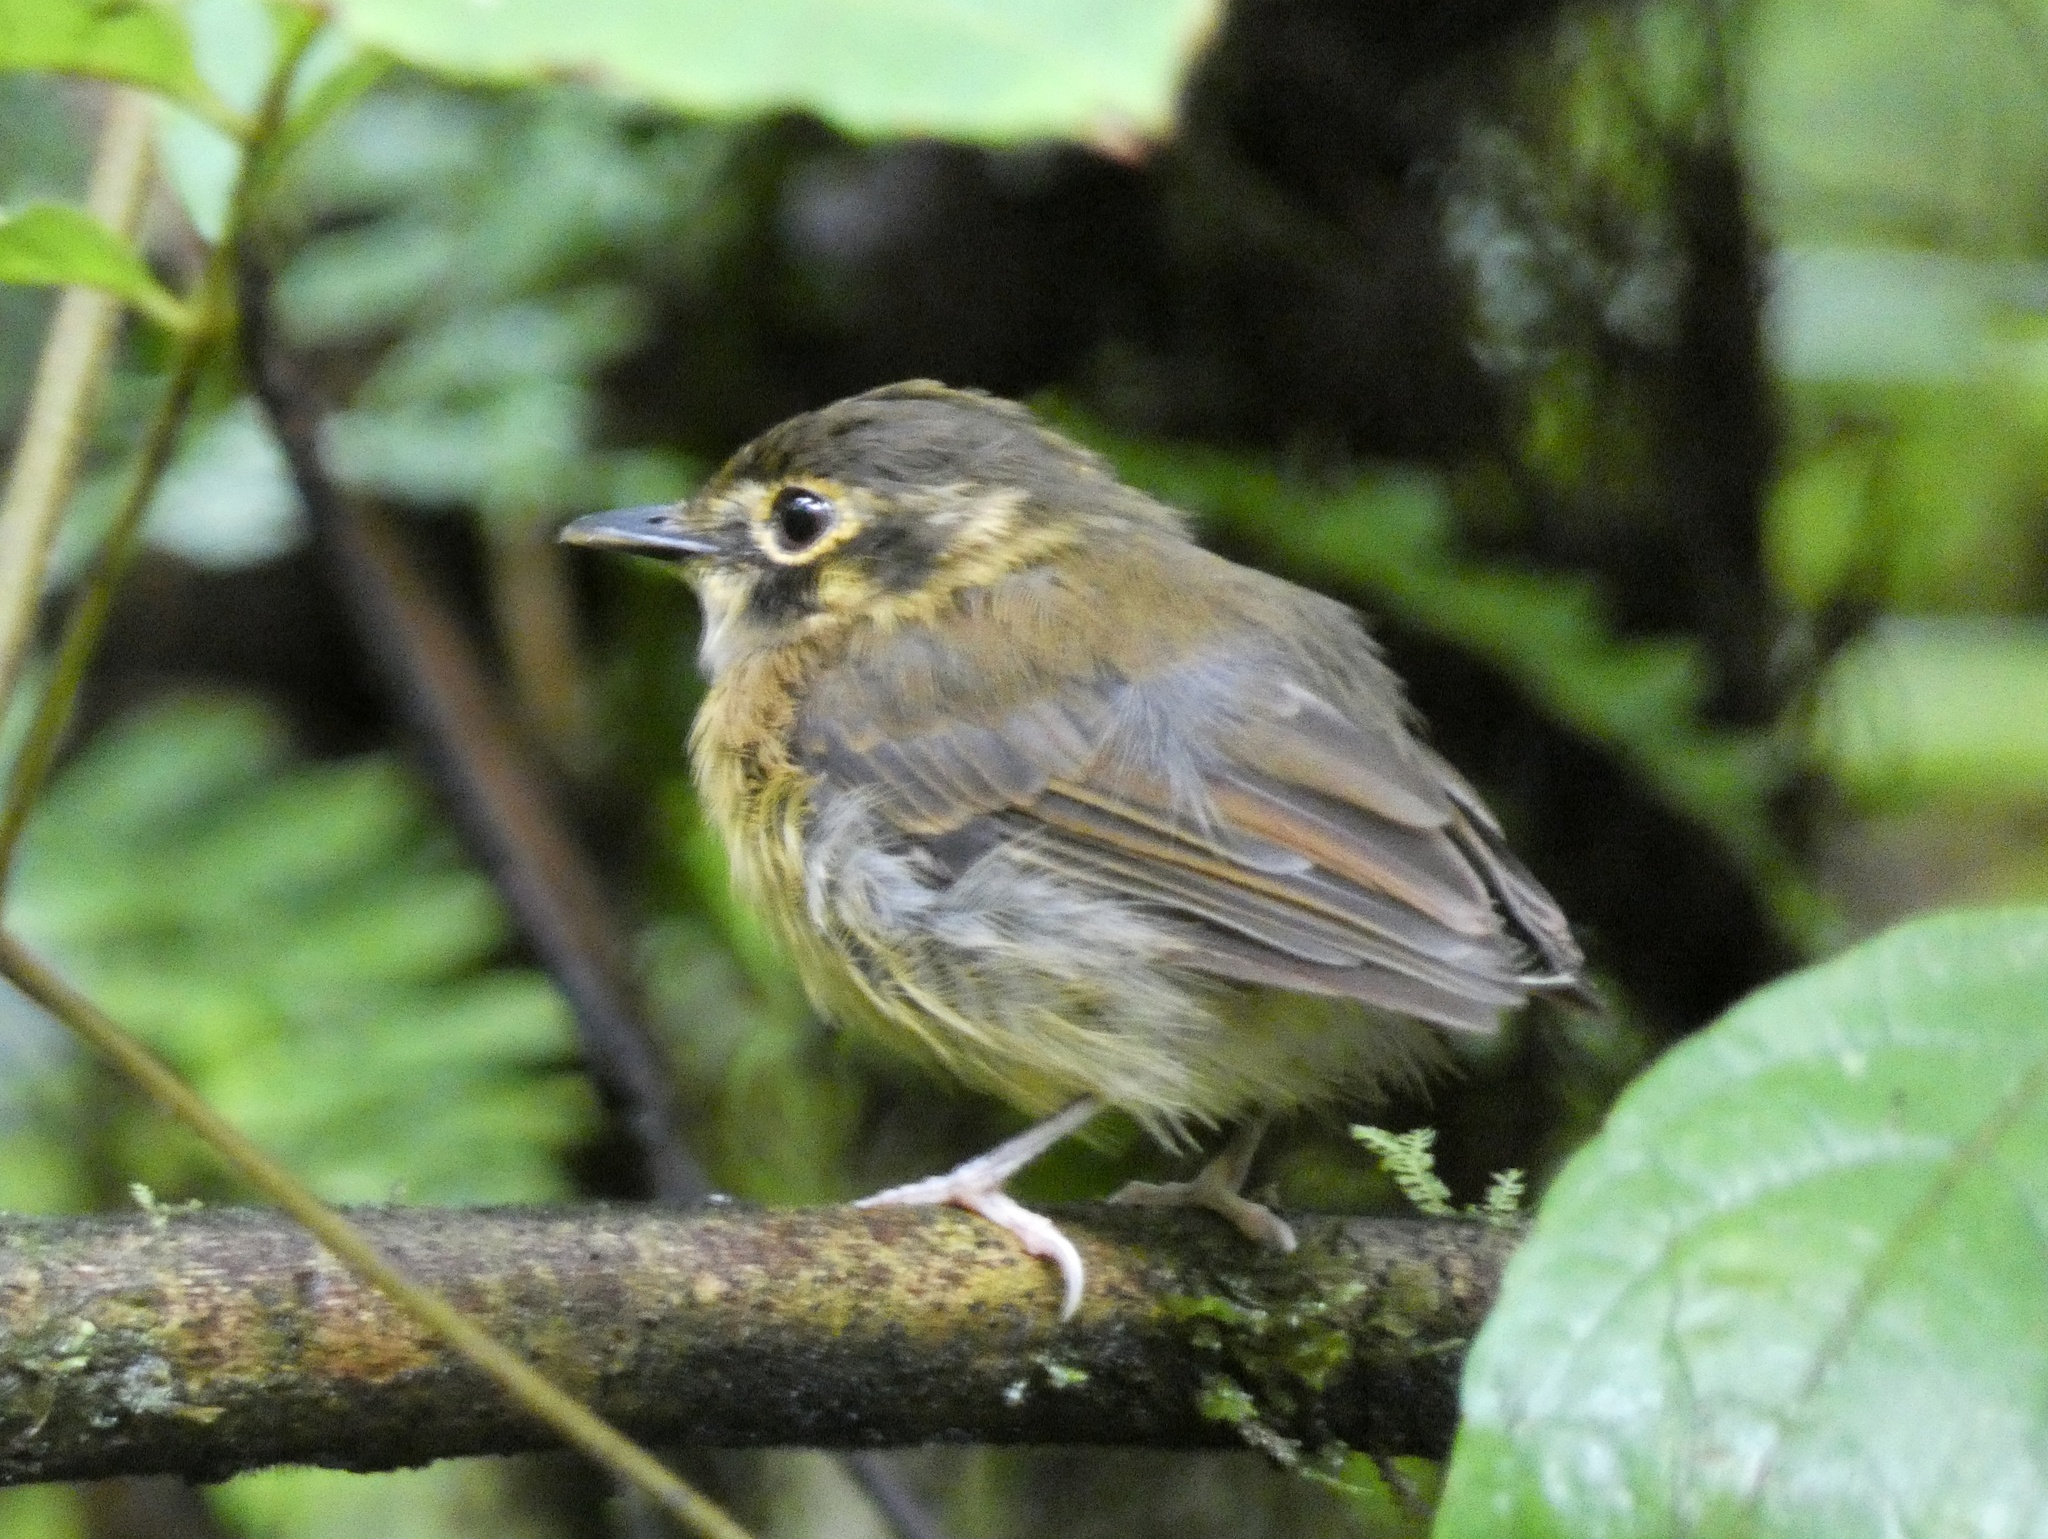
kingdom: Animalia
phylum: Chordata
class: Aves
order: Passeriformes
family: Tyrannidae
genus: Platyrinchus
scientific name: Platyrinchus mystaceus
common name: White-throated spadebill
